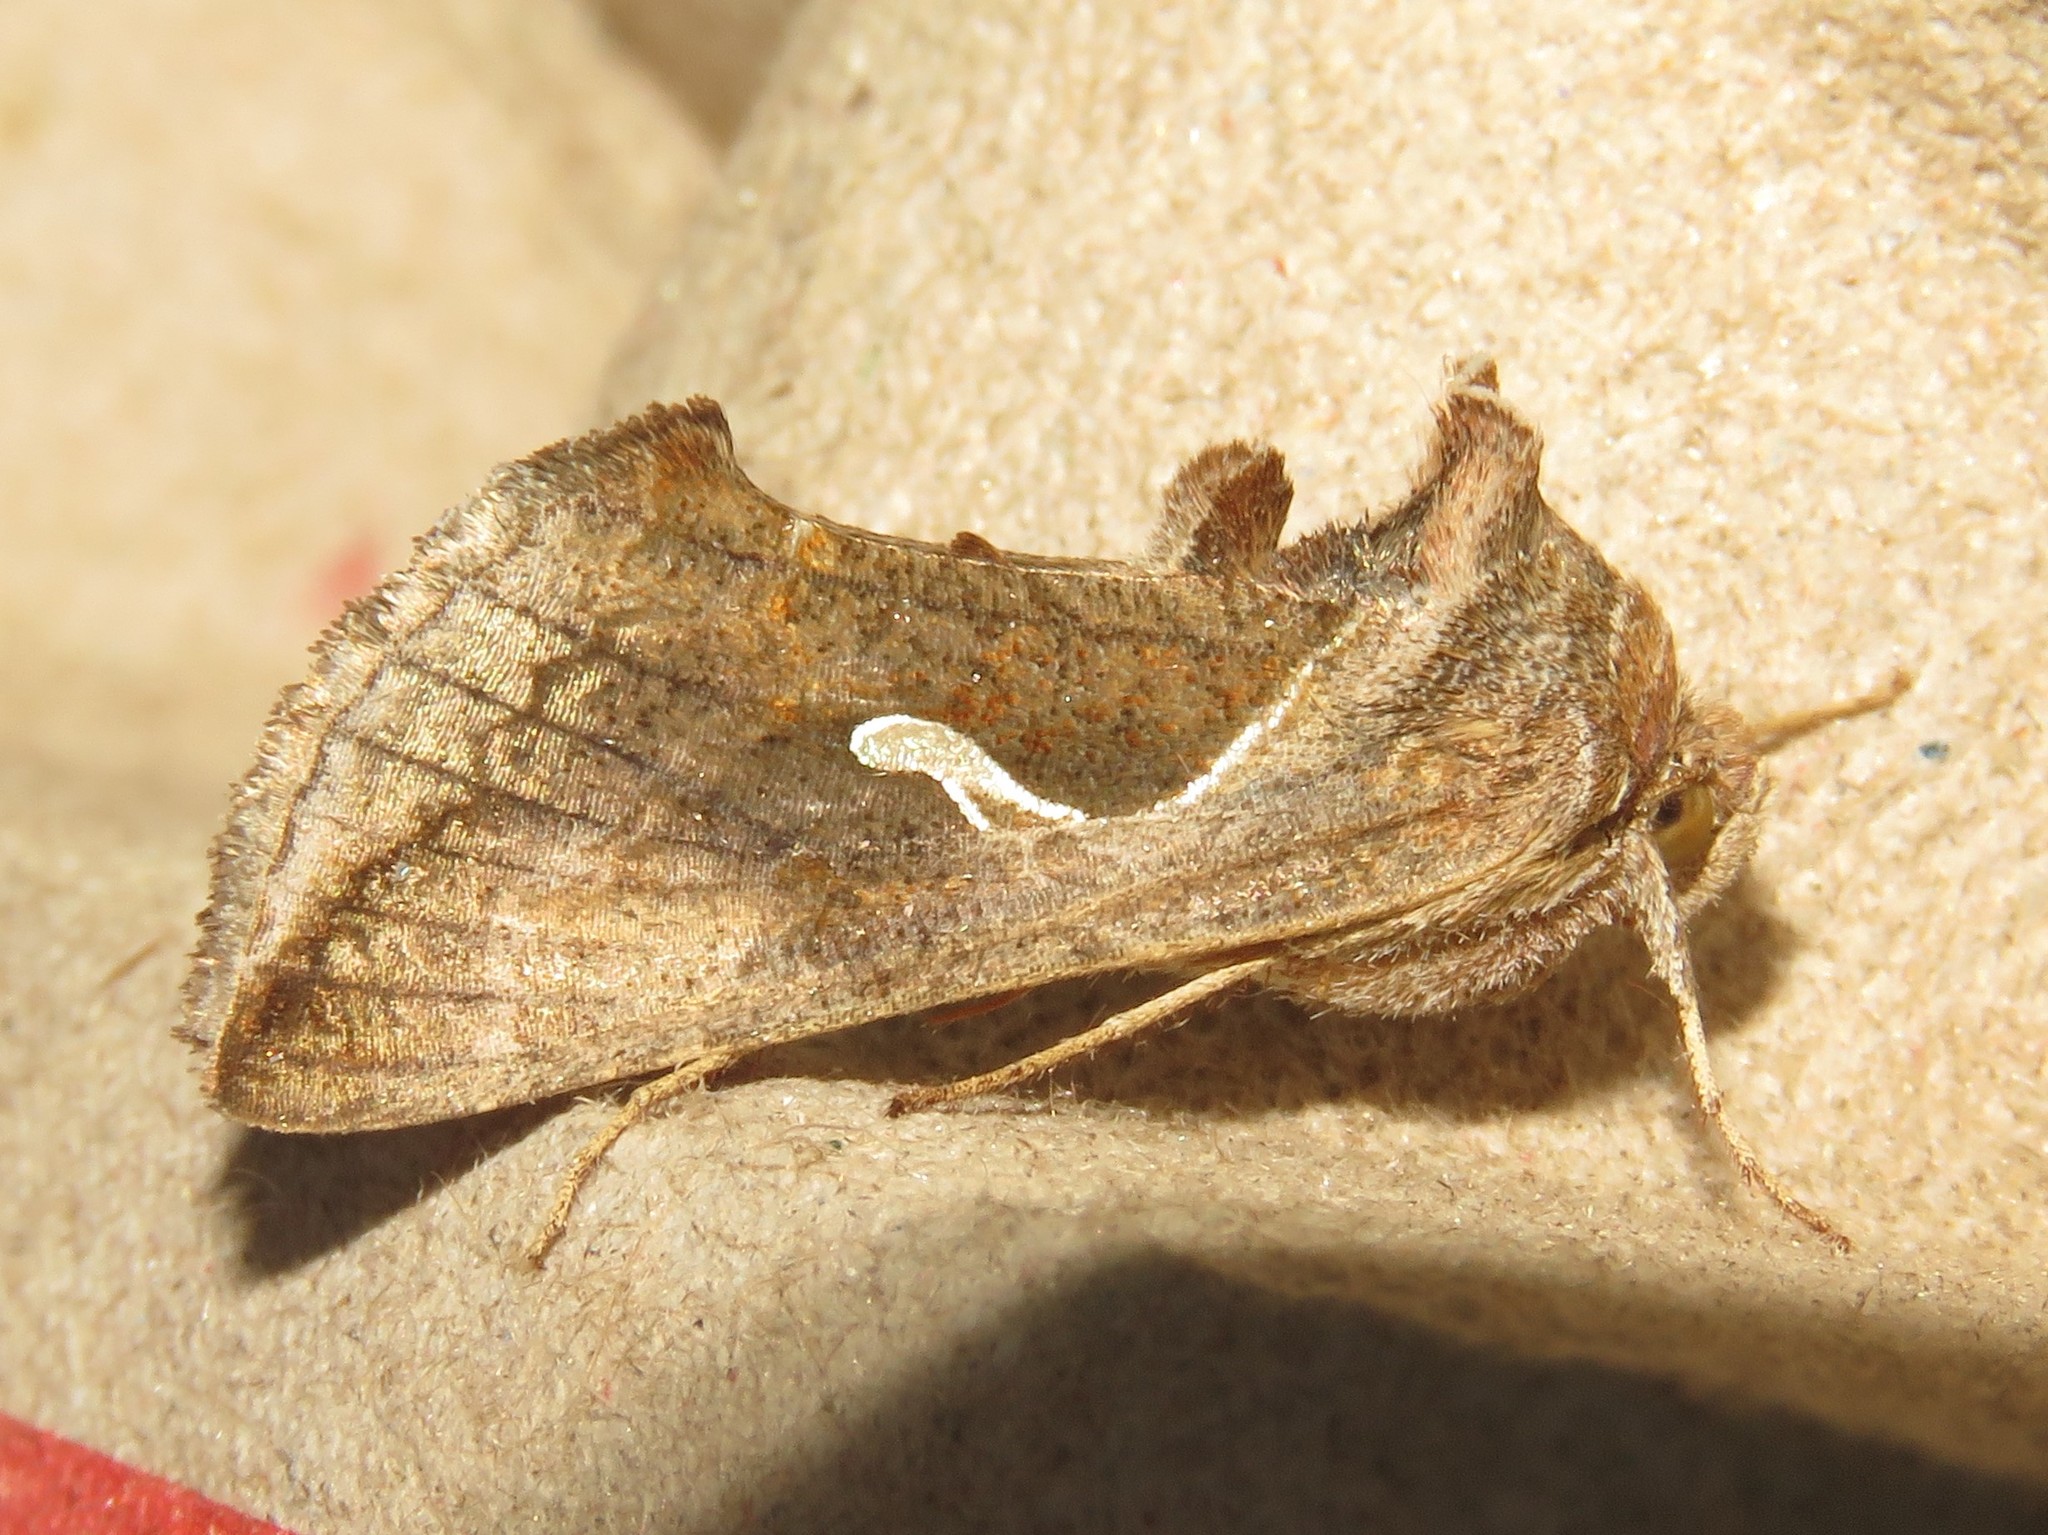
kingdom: Animalia
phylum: Arthropoda
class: Insecta
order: Lepidoptera
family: Noctuidae
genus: Anagrapha
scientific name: Anagrapha falcifera
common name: Celery looper
